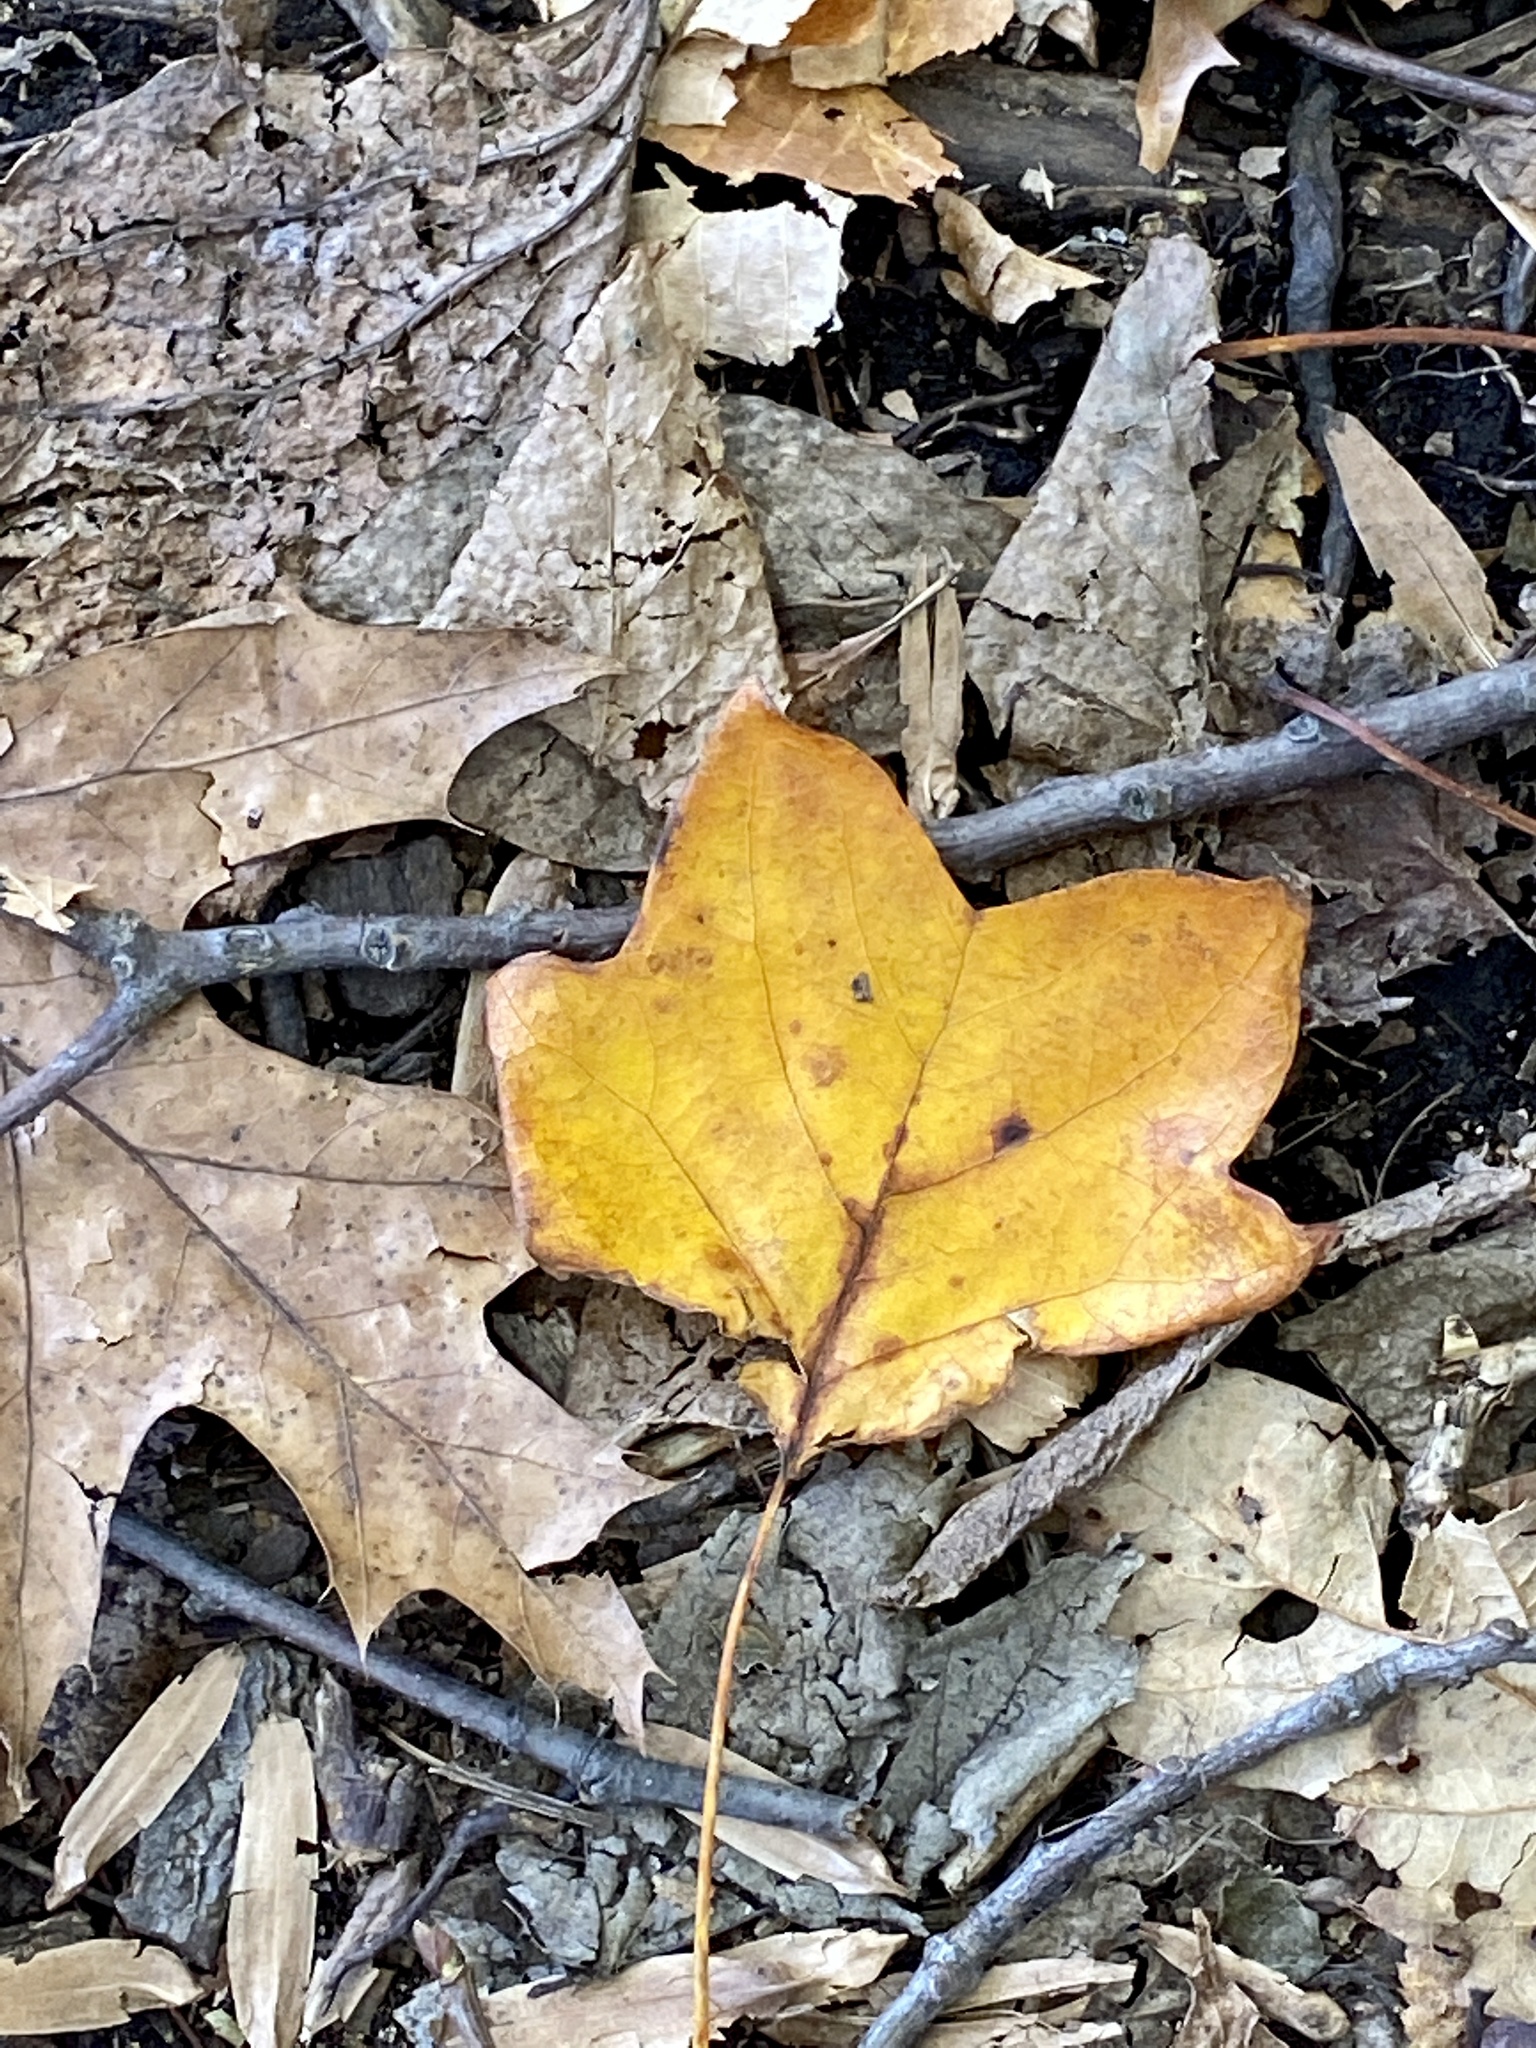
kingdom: Plantae
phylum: Tracheophyta
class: Magnoliopsida
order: Magnoliales
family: Magnoliaceae
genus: Liriodendron
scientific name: Liriodendron tulipifera
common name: Tulip tree
